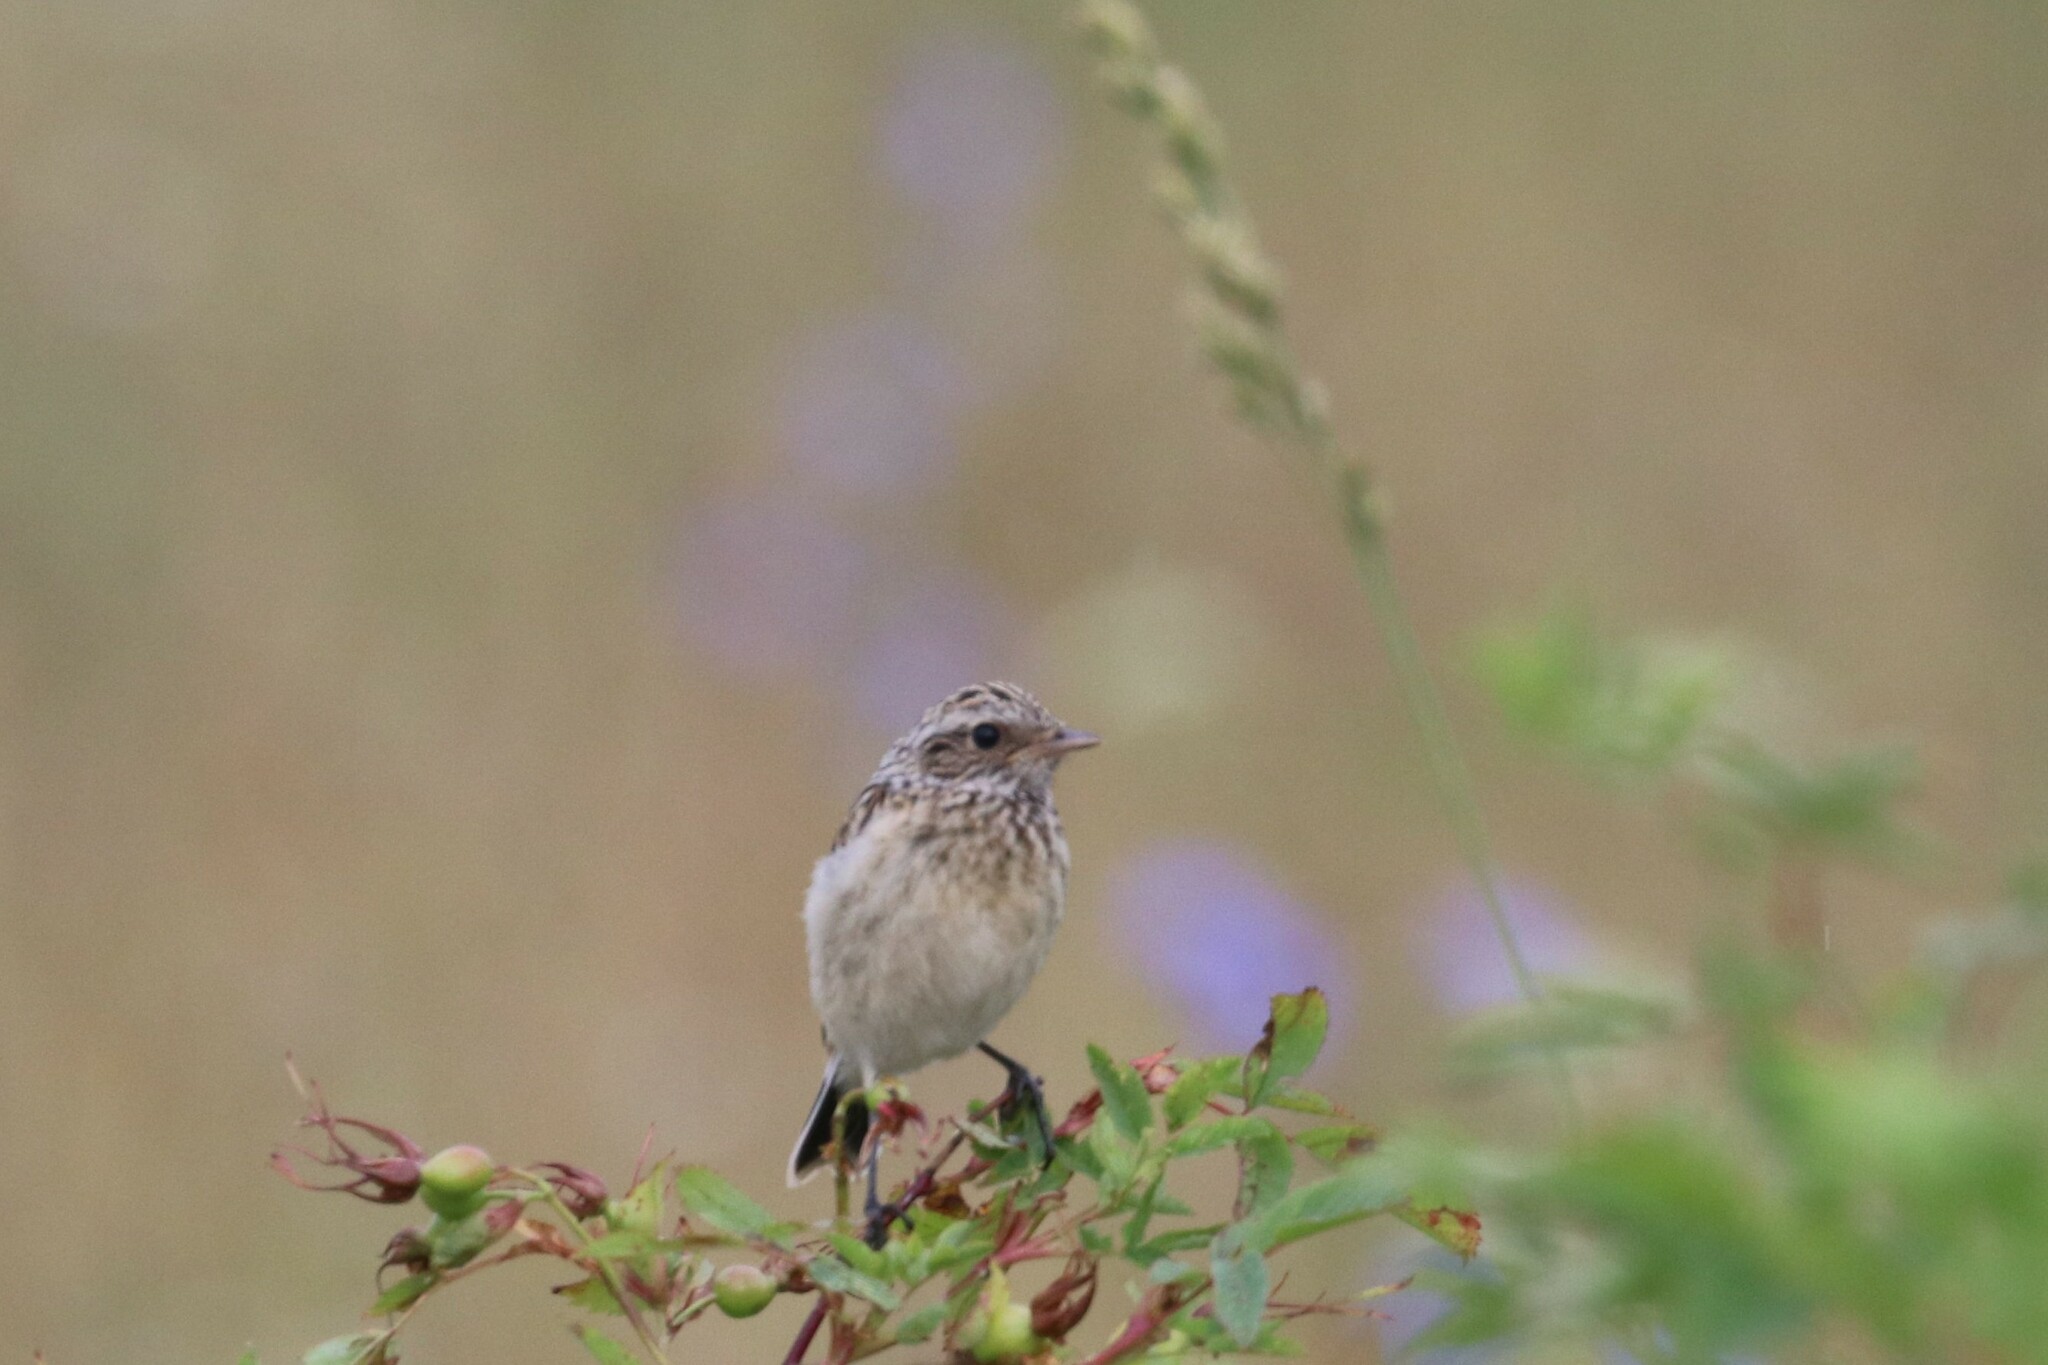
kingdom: Animalia
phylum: Chordata
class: Aves
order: Passeriformes
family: Muscicapidae
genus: Saxicola
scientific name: Saxicola rubetra
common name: Whinchat
